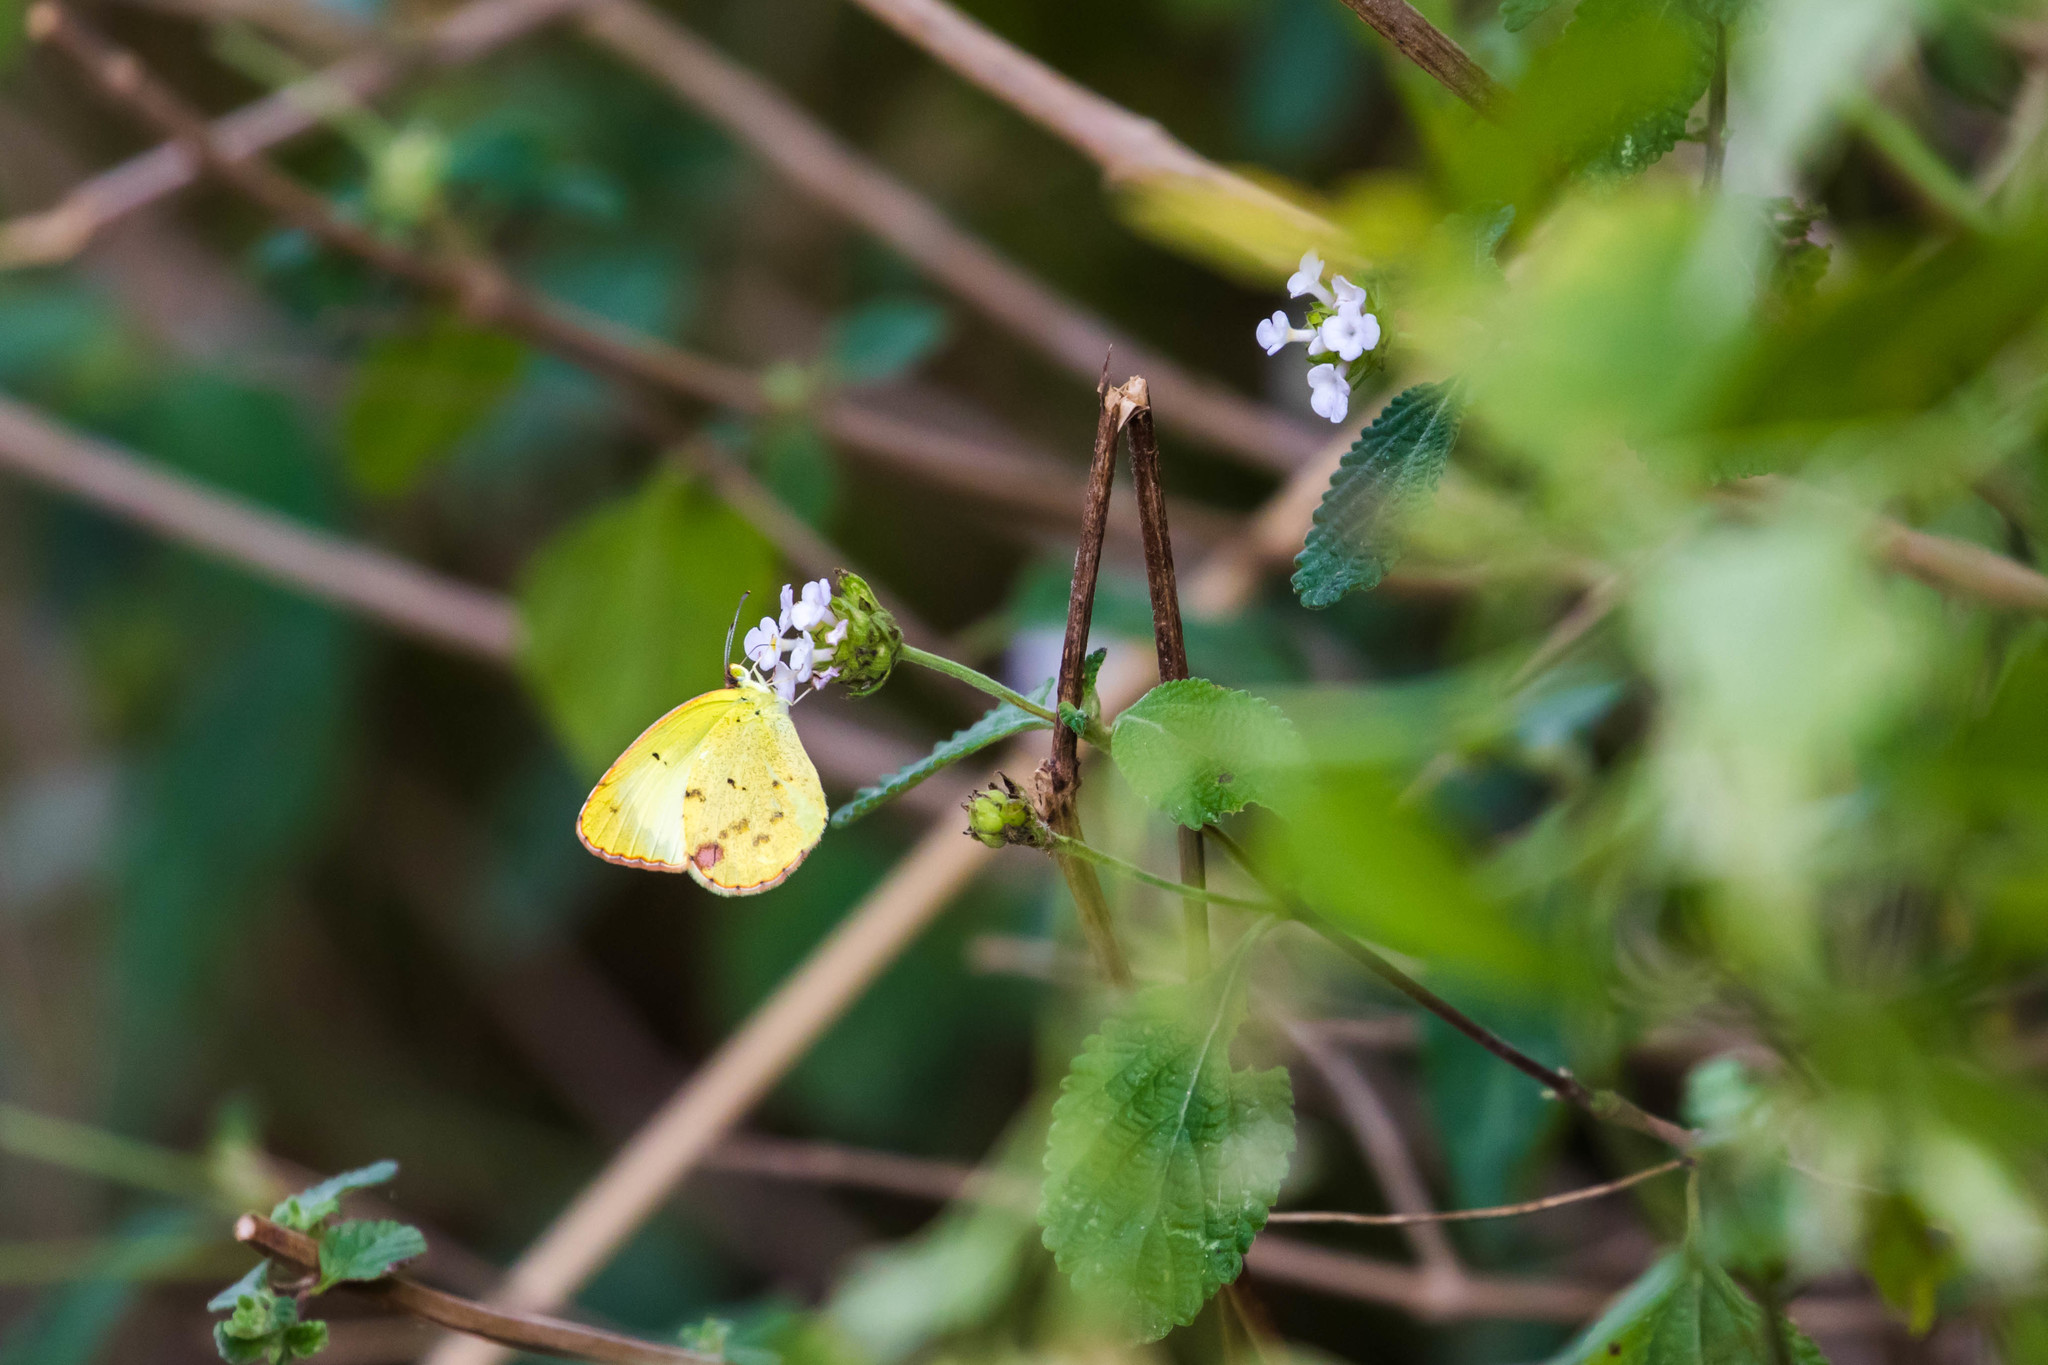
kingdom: Animalia
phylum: Arthropoda
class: Insecta
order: Lepidoptera
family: Pieridae
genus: Pyrisitia
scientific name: Pyrisitia lisa
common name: Little yellow
